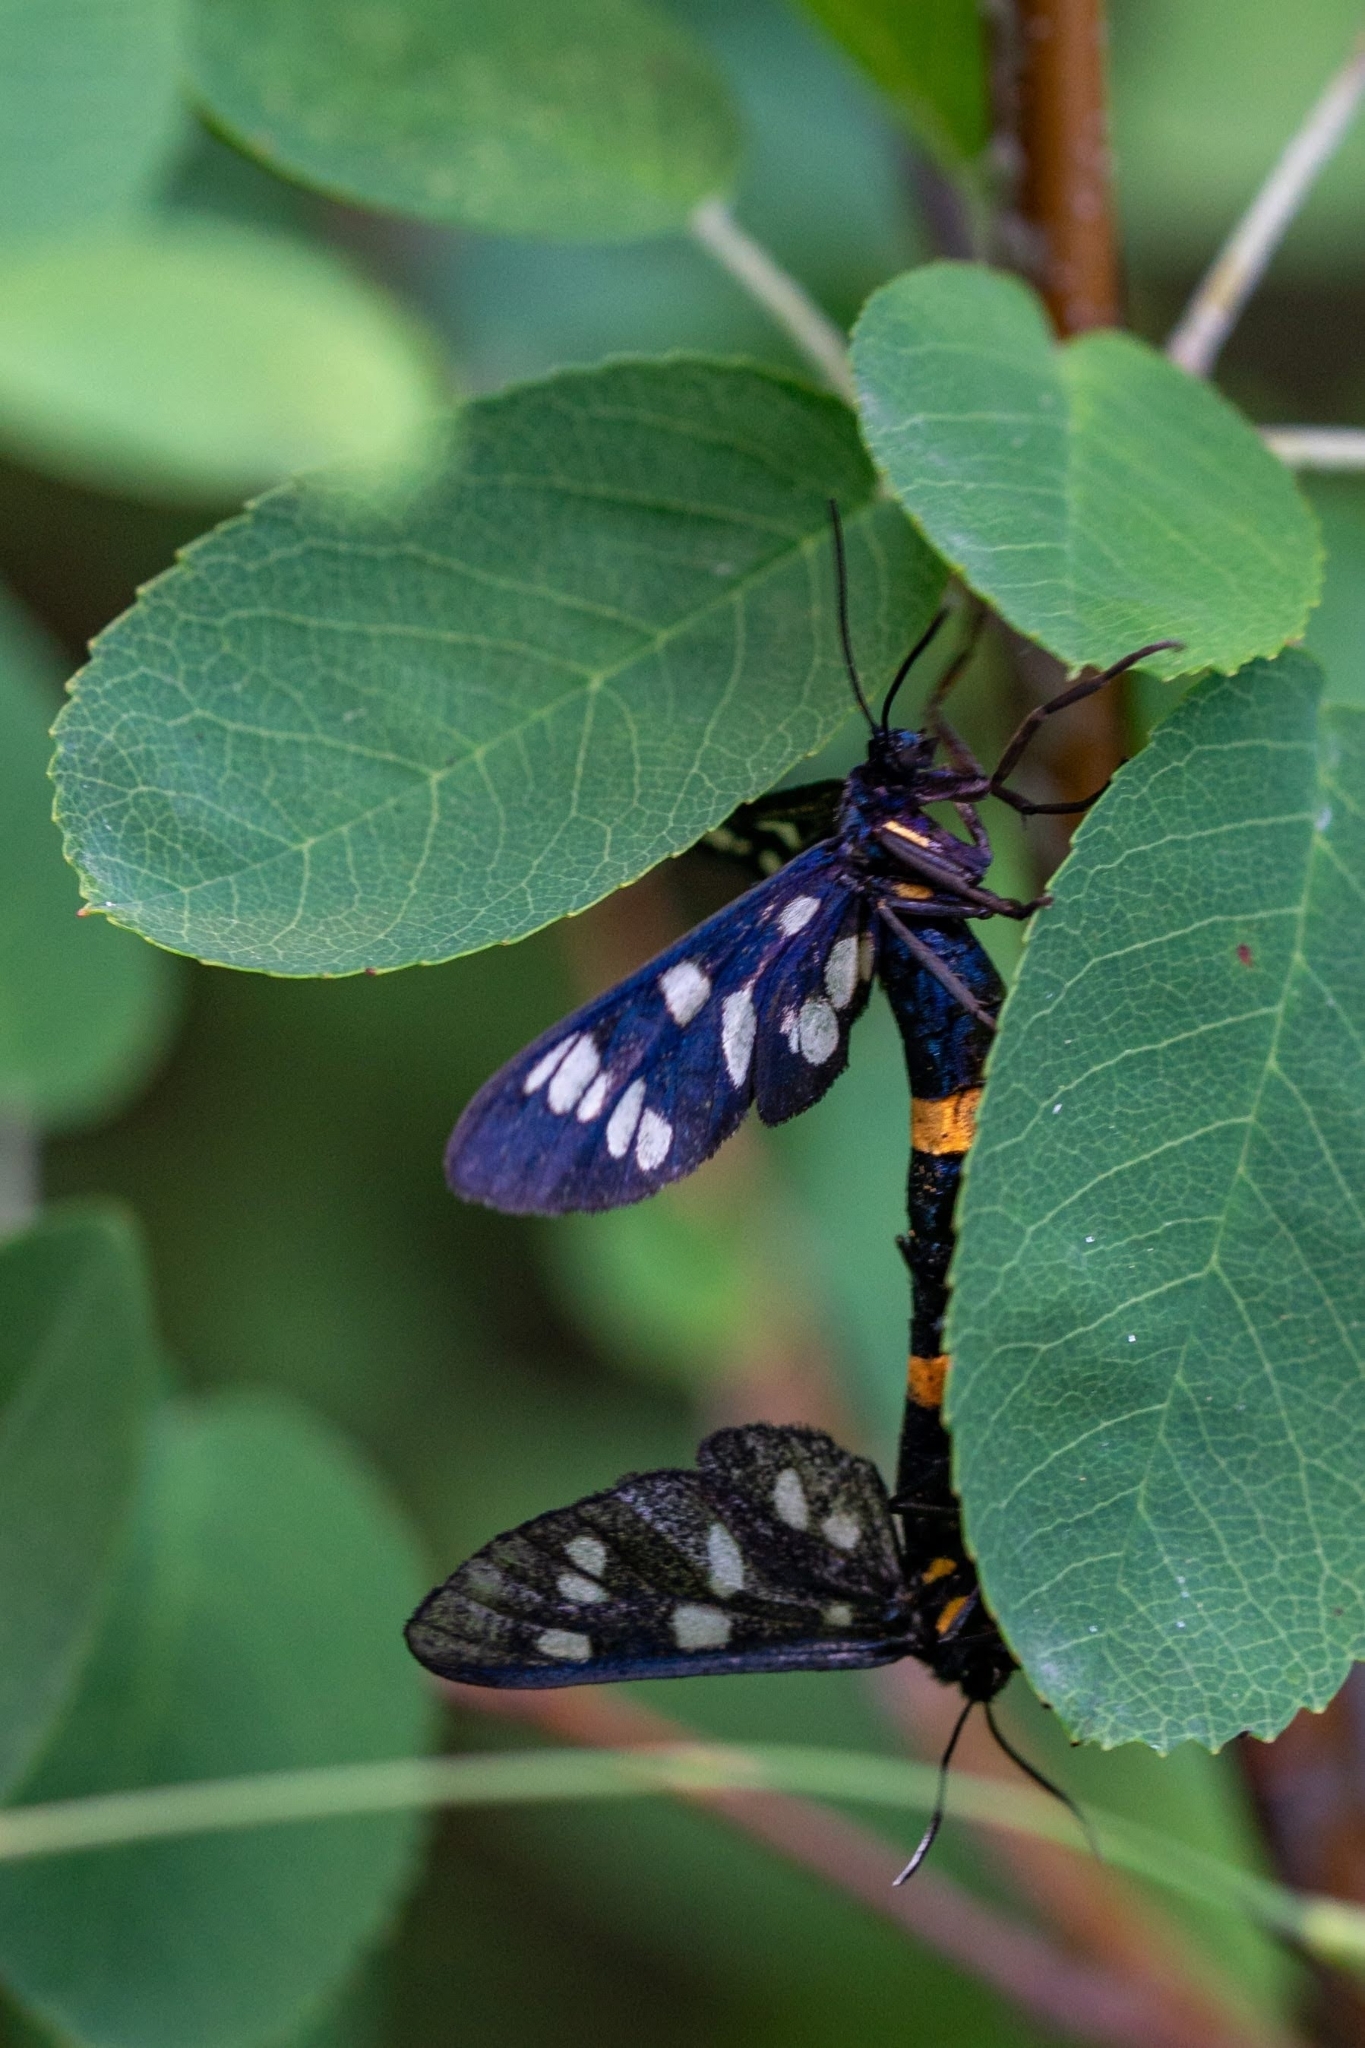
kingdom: Animalia
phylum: Arthropoda
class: Insecta
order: Lepidoptera
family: Erebidae
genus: Amata
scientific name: Amata phegea
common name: Nine-spotted
